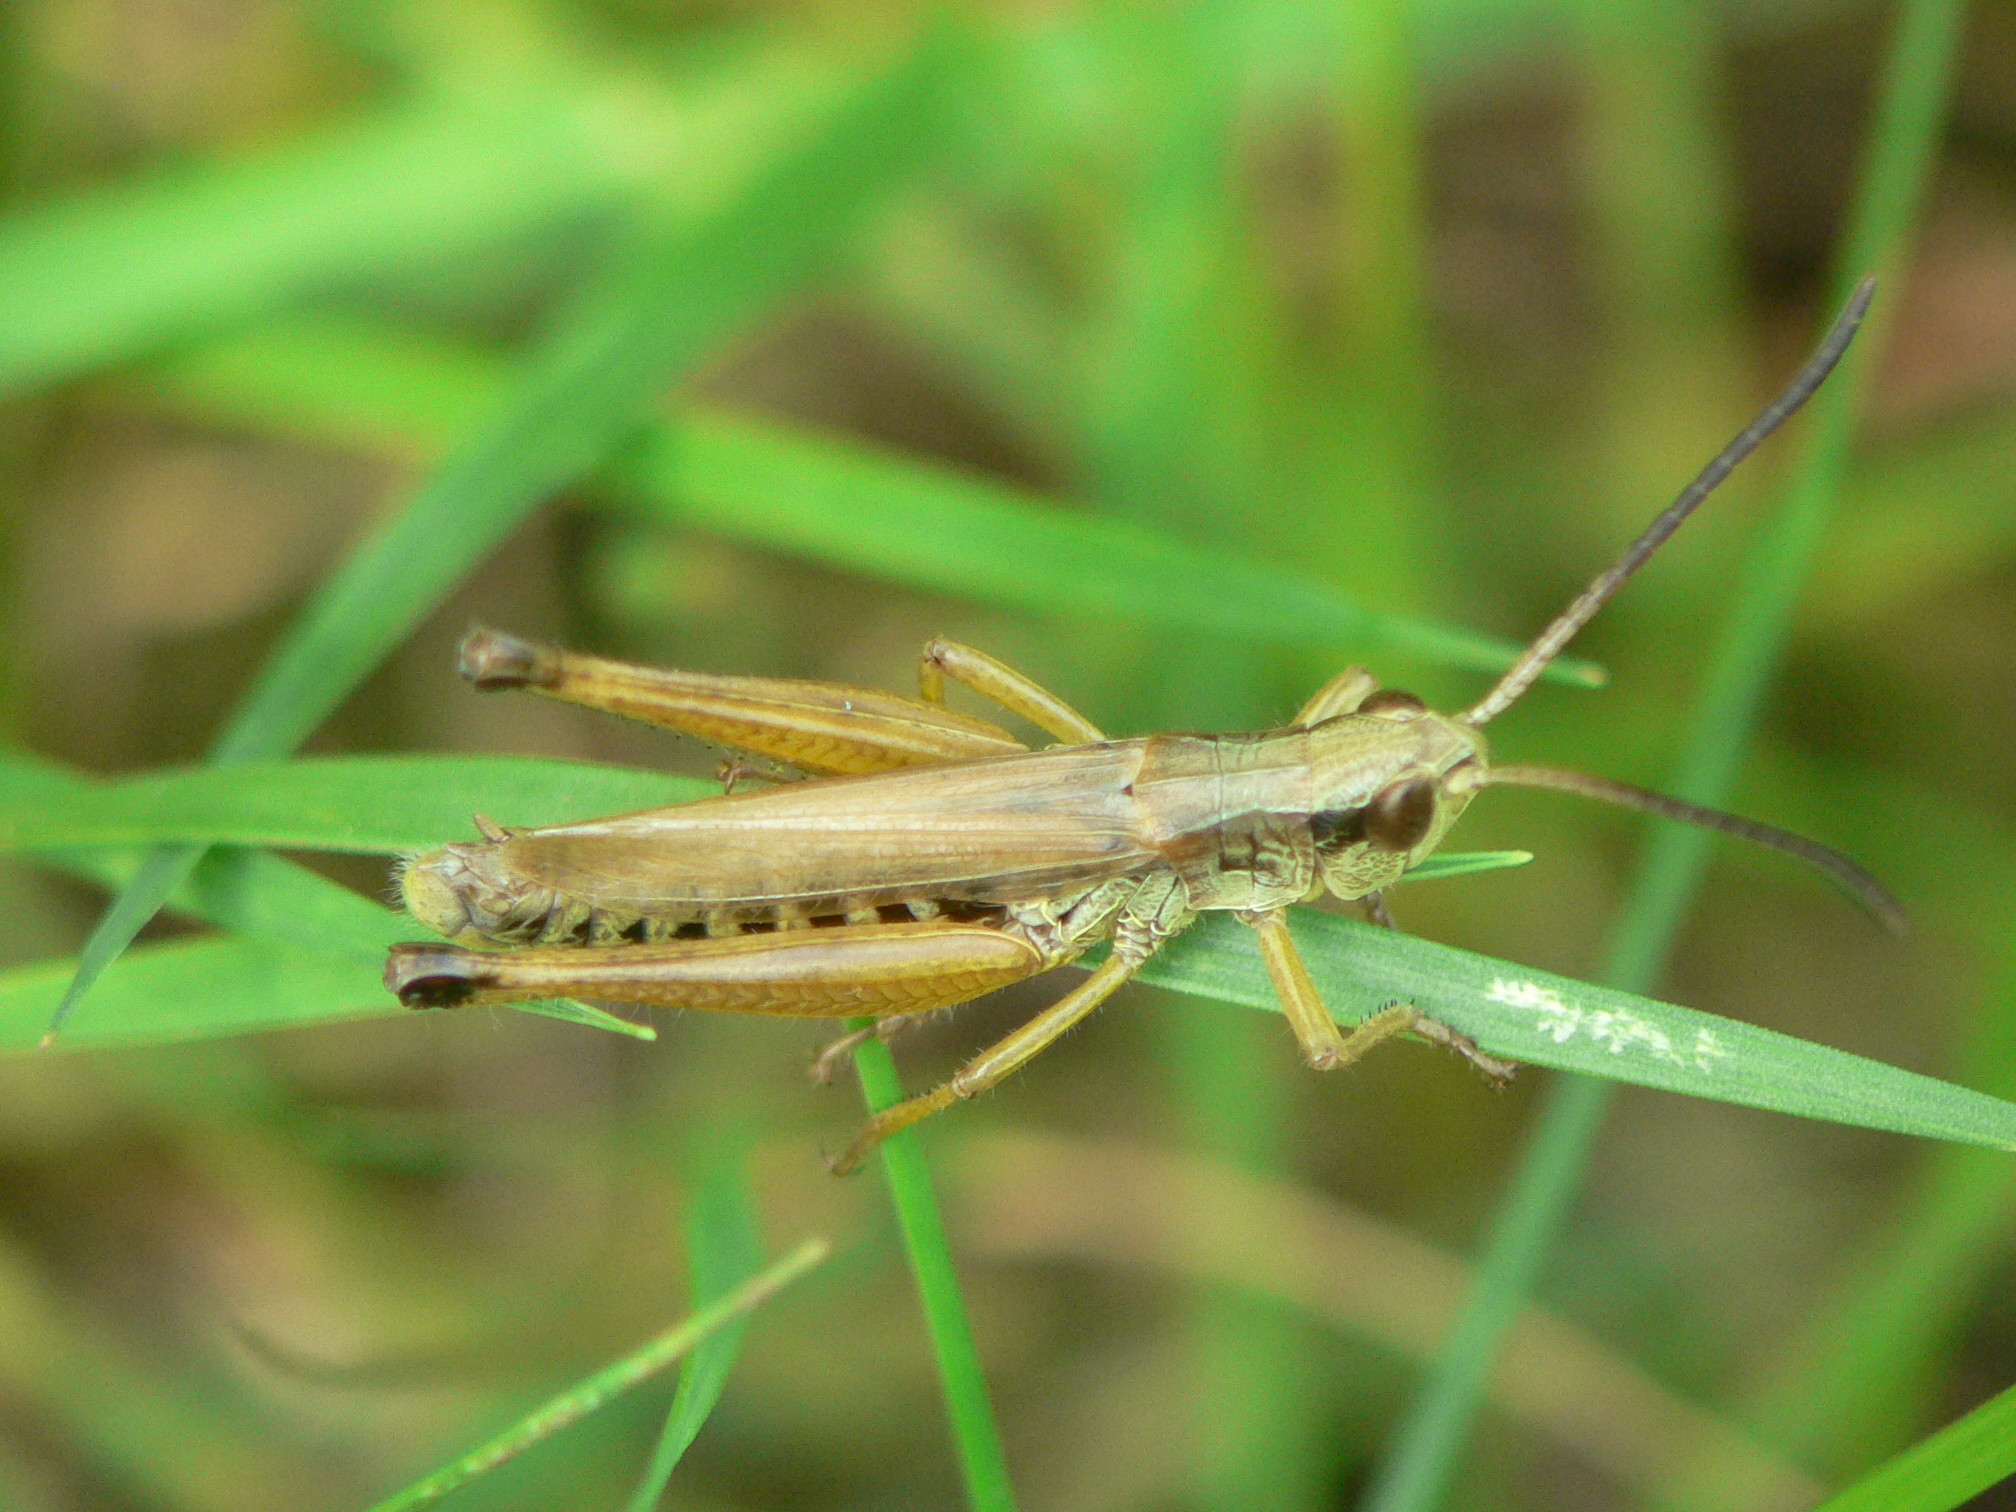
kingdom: Animalia
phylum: Arthropoda
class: Insecta
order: Orthoptera
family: Acrididae
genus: Pseudochorthippus
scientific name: Pseudochorthippus curtipennis
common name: Marsh meadow grasshopper
